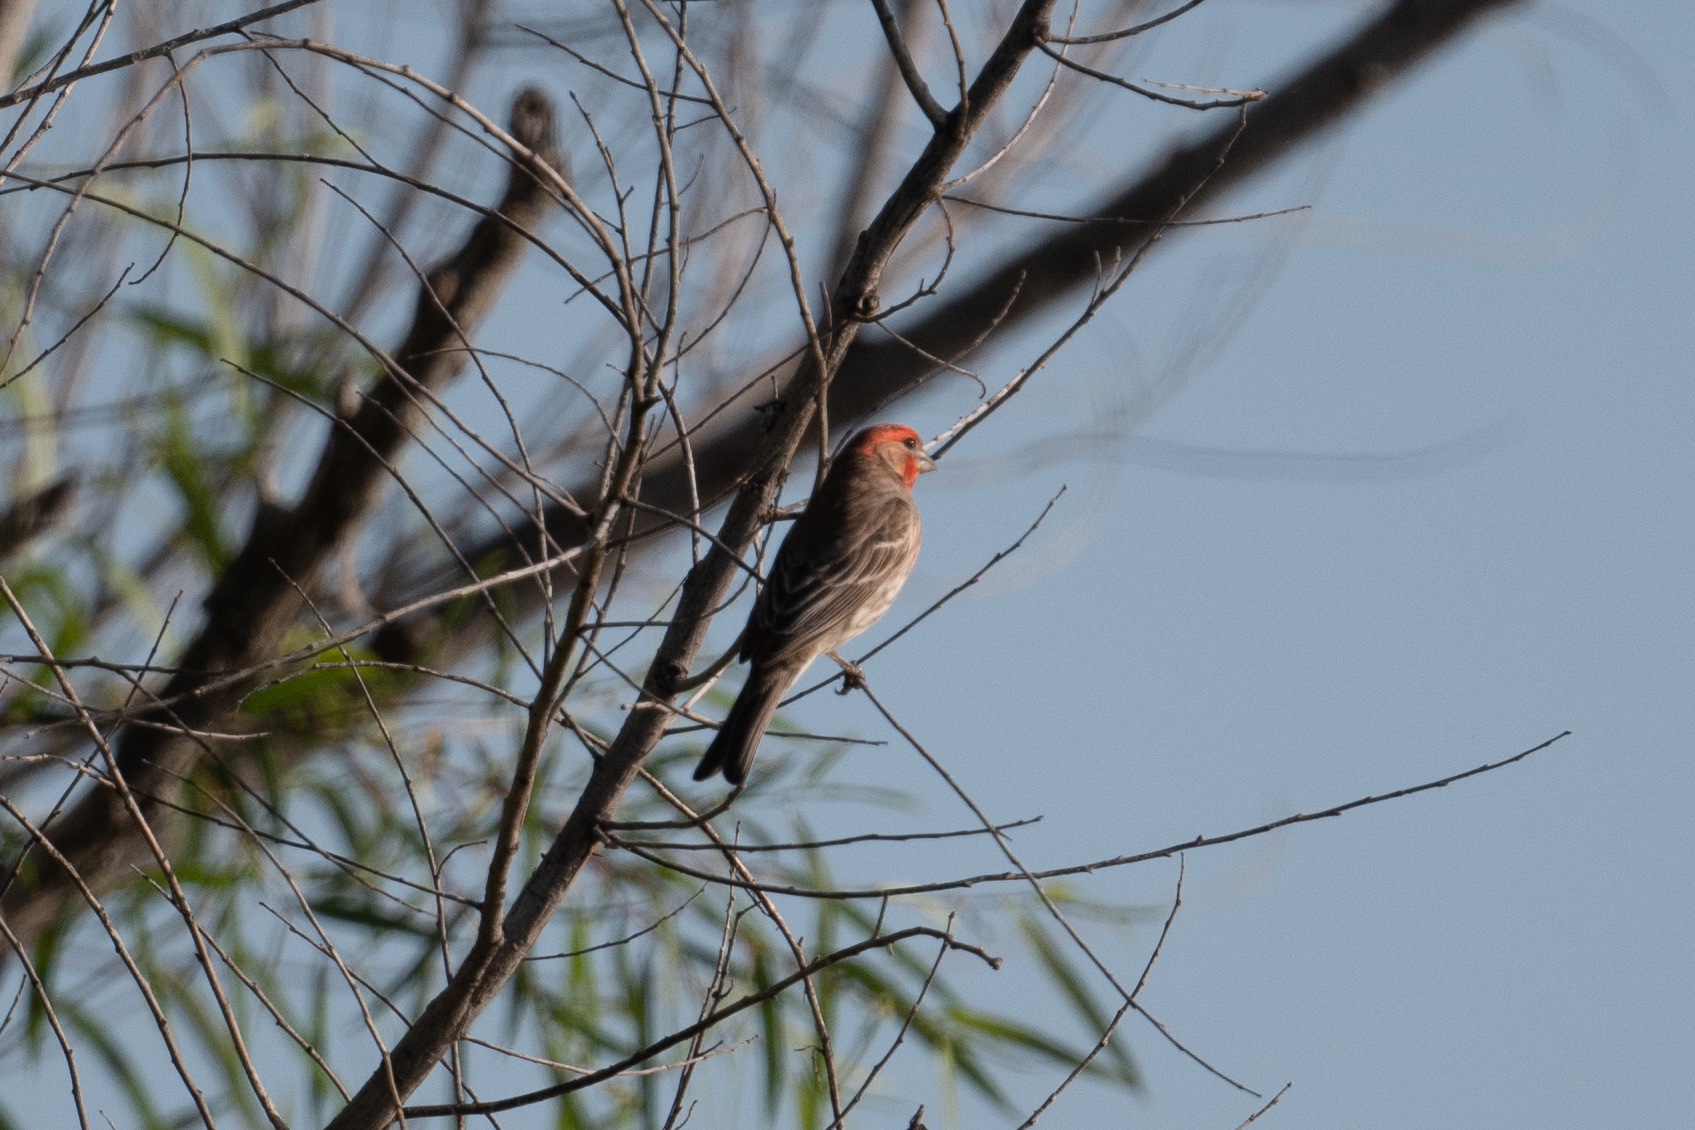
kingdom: Animalia
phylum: Chordata
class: Aves
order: Passeriformes
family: Fringillidae
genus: Haemorhous
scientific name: Haemorhous mexicanus
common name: House finch
